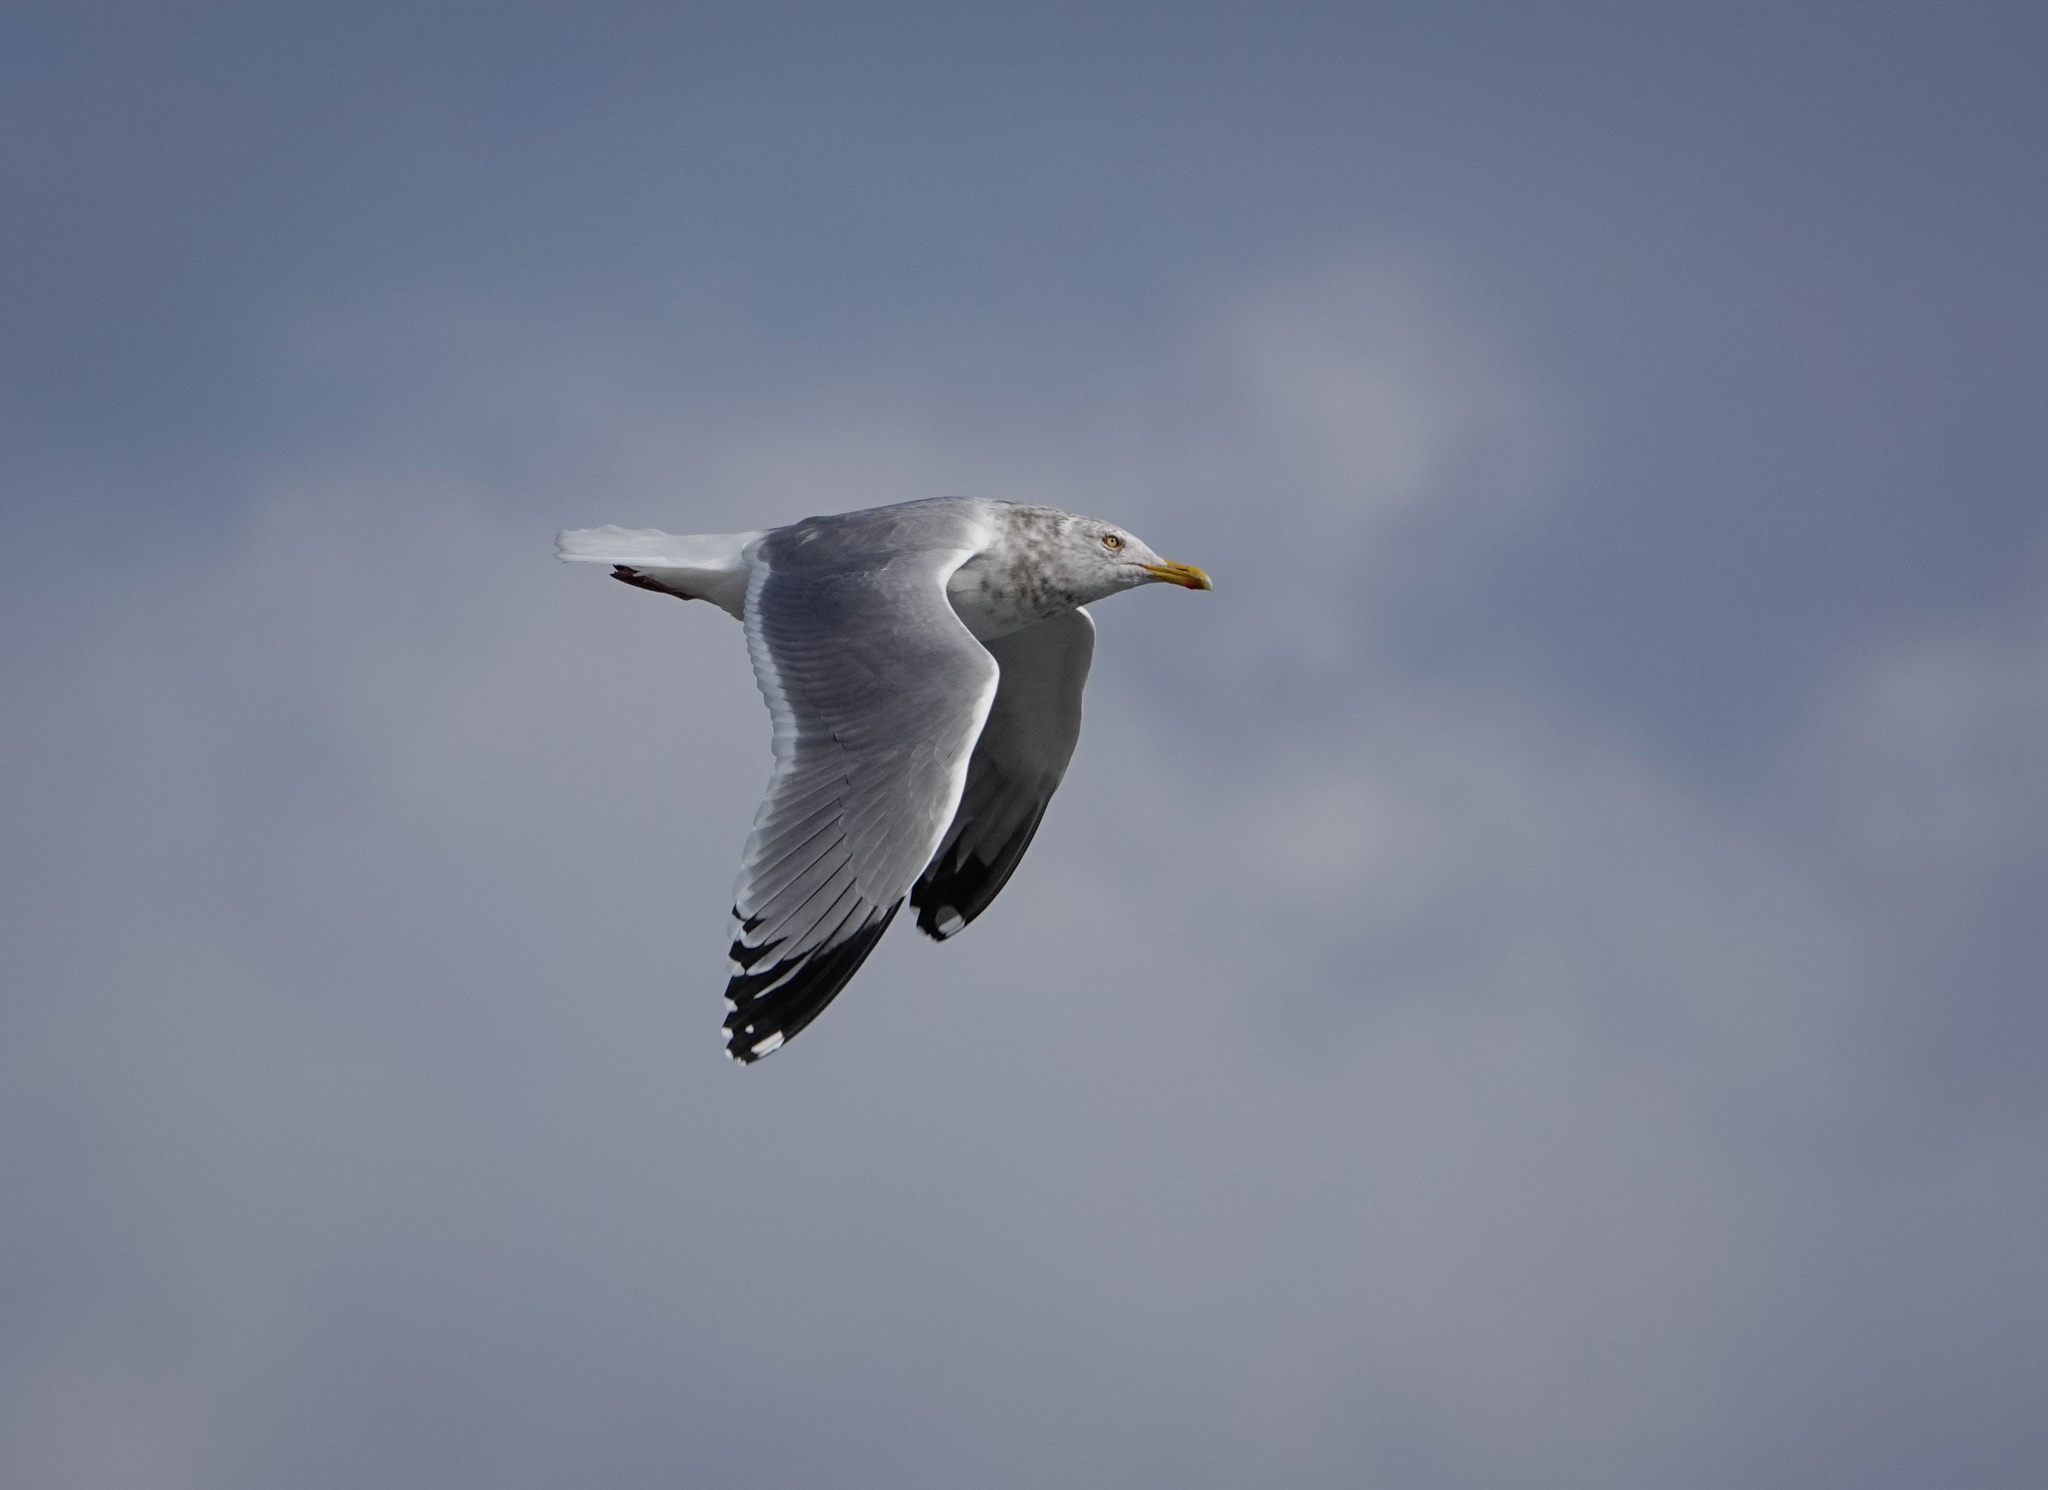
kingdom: Animalia
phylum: Chordata
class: Aves
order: Charadriiformes
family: Laridae
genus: Larus
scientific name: Larus argentatus
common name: Herring gull
